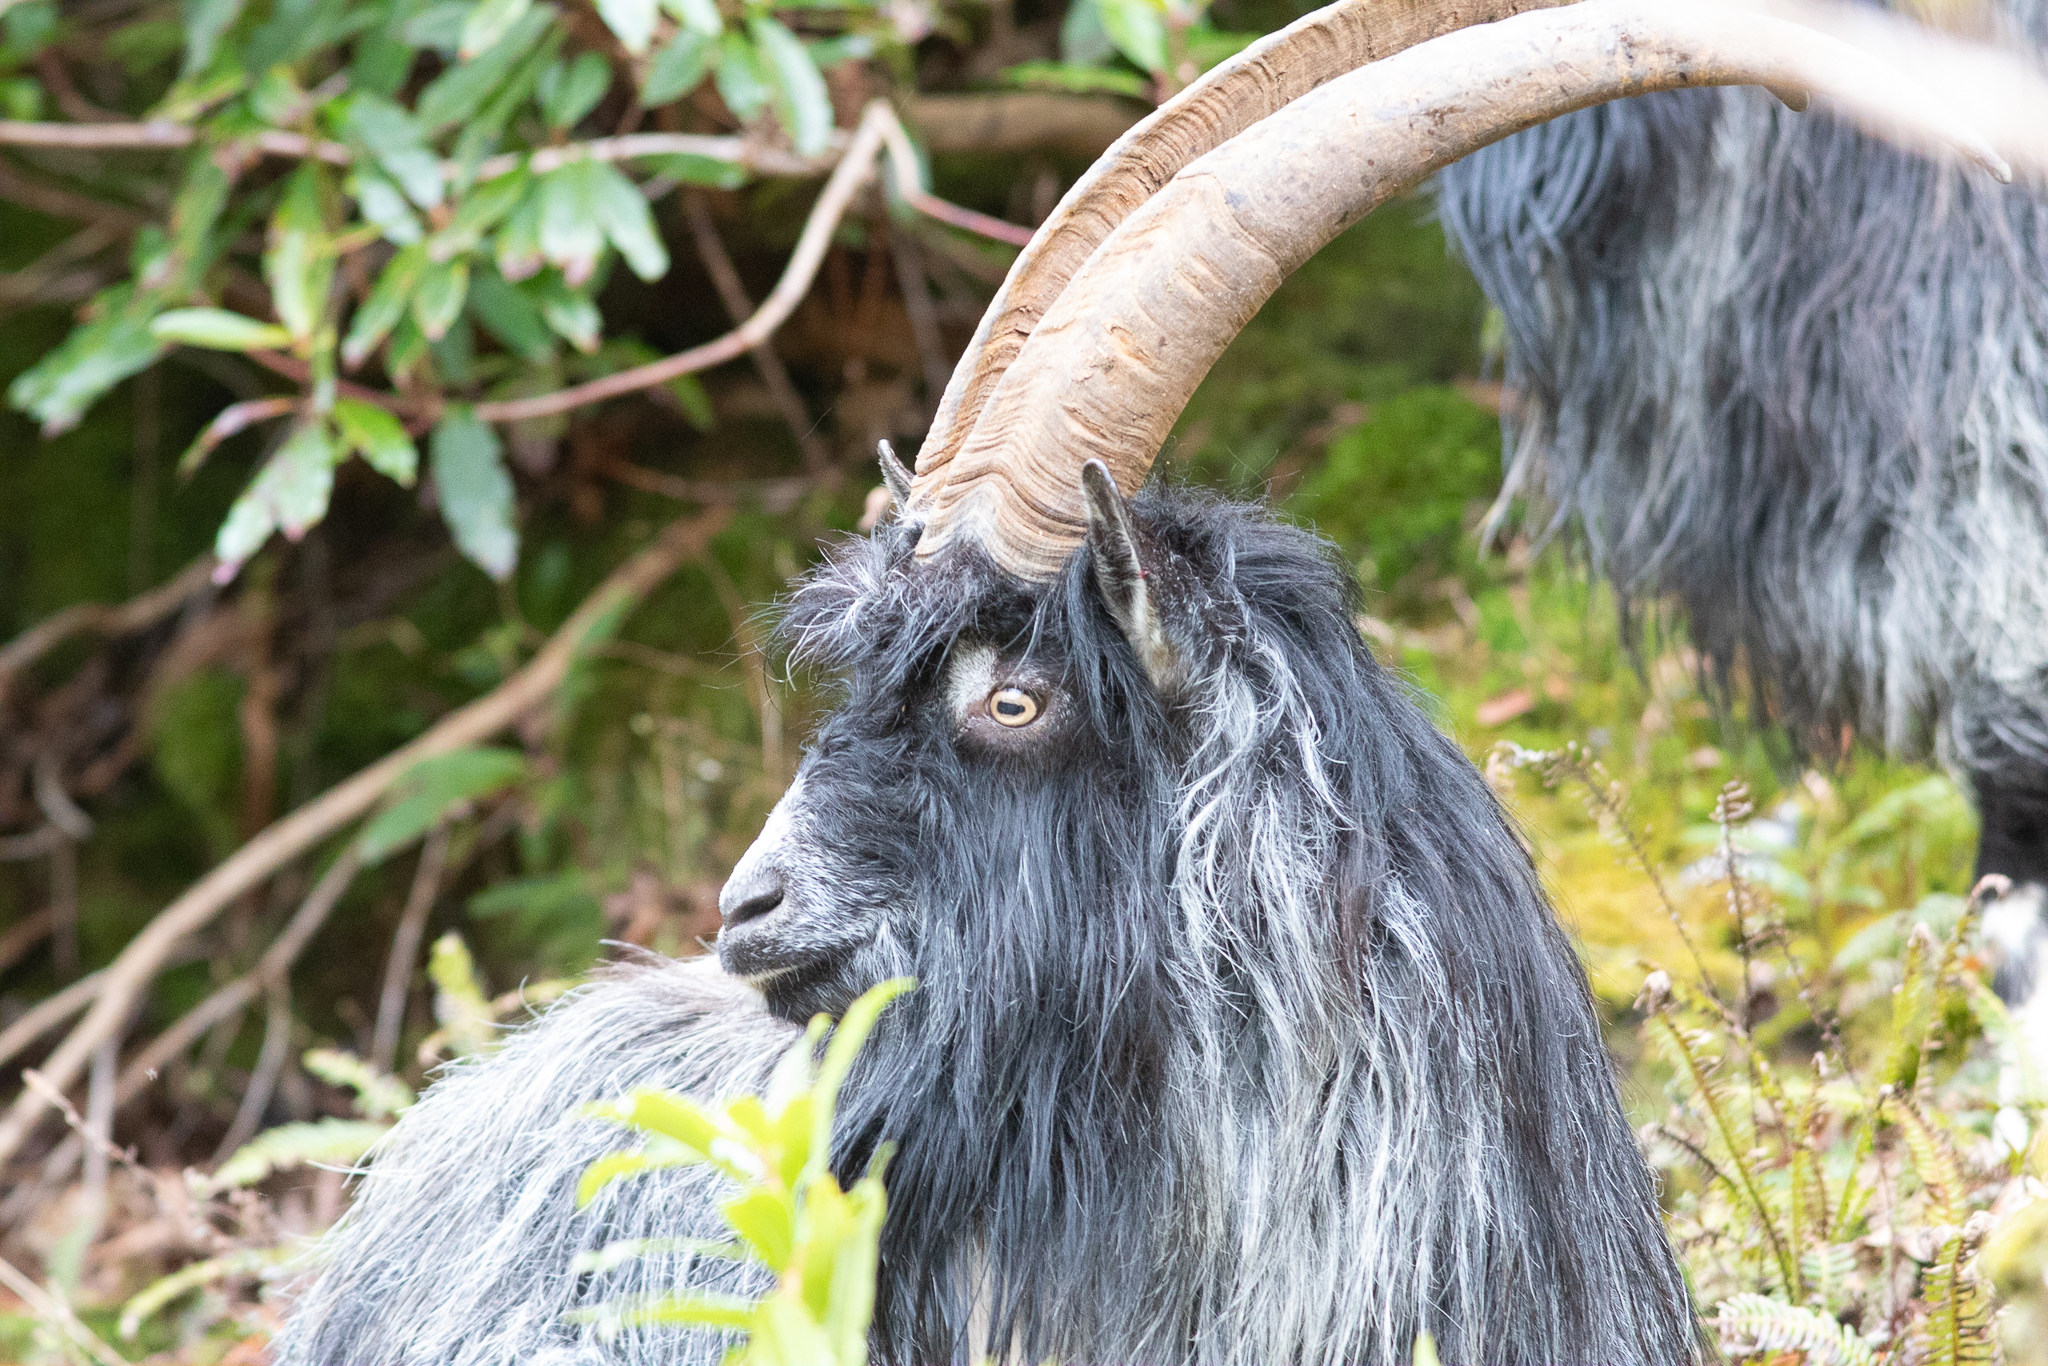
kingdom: Animalia
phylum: Chordata
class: Mammalia
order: Artiodactyla
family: Bovidae
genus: Capra
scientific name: Capra hircus
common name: Domestic goat
